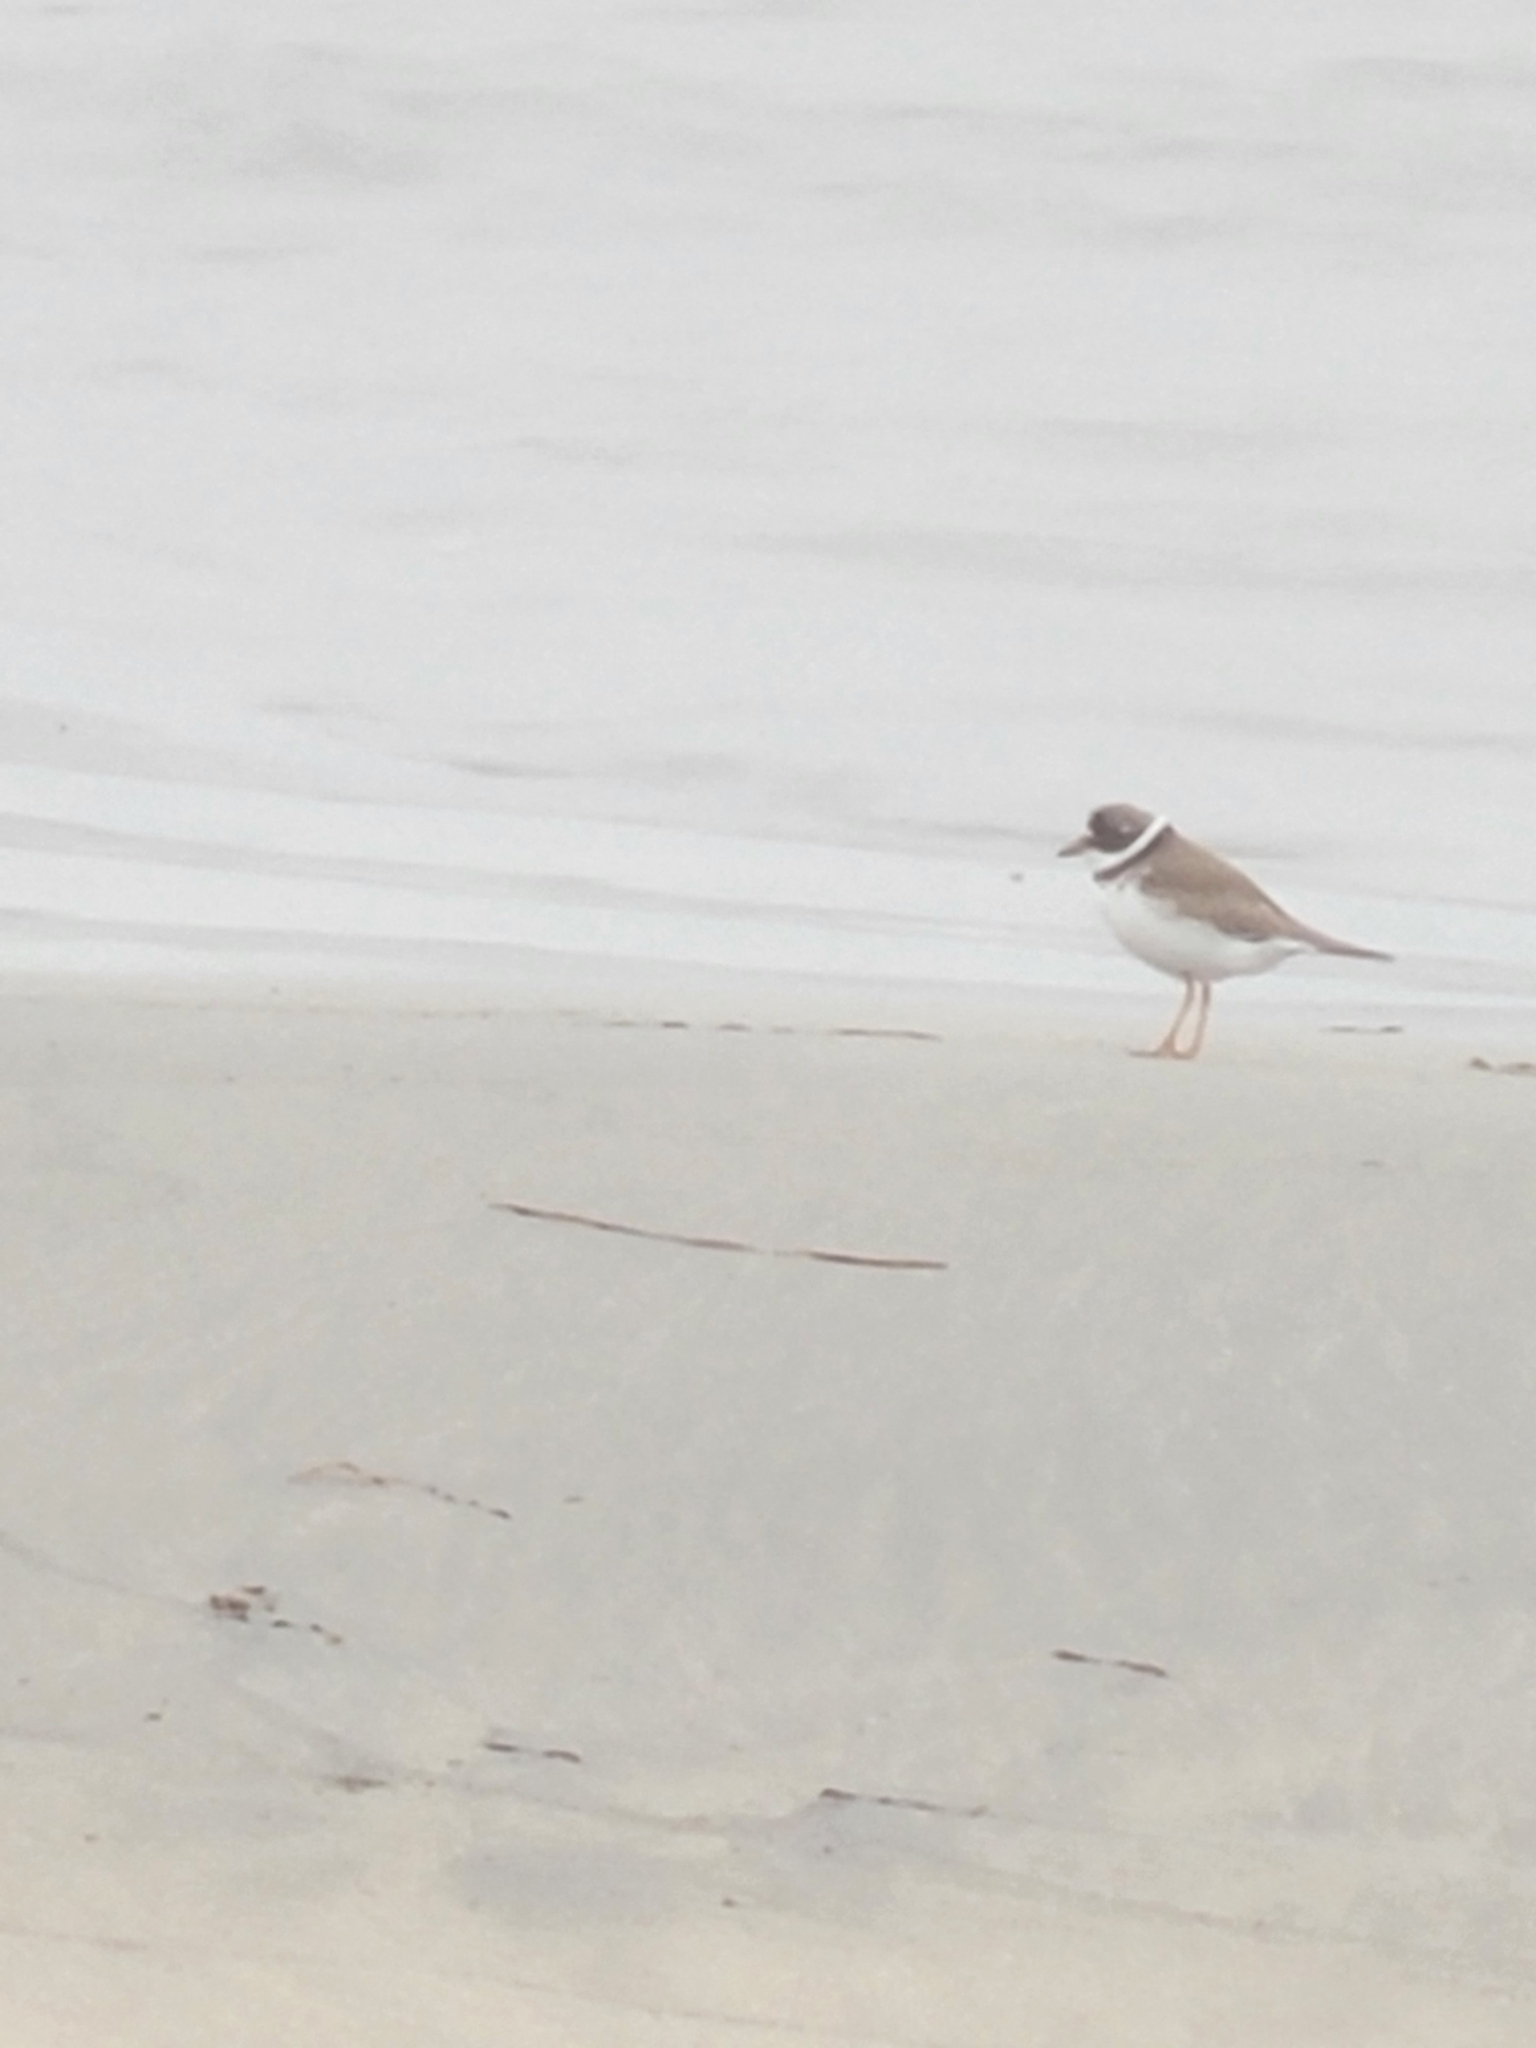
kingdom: Animalia
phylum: Chordata
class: Aves
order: Charadriiformes
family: Charadriidae
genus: Charadrius
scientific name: Charadrius semipalmatus
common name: Semipalmated plover
